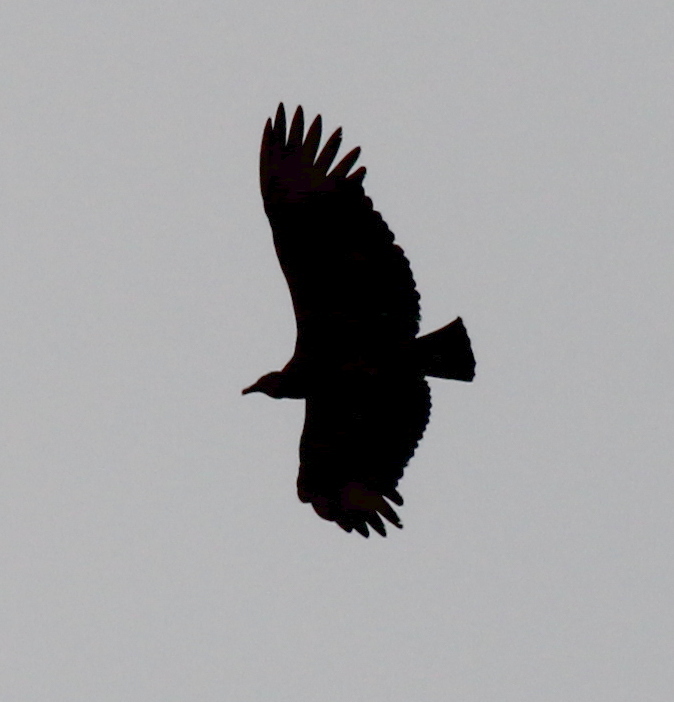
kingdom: Animalia
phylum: Chordata
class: Aves
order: Accipitriformes
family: Cathartidae
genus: Coragyps
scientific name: Coragyps atratus
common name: Black vulture
